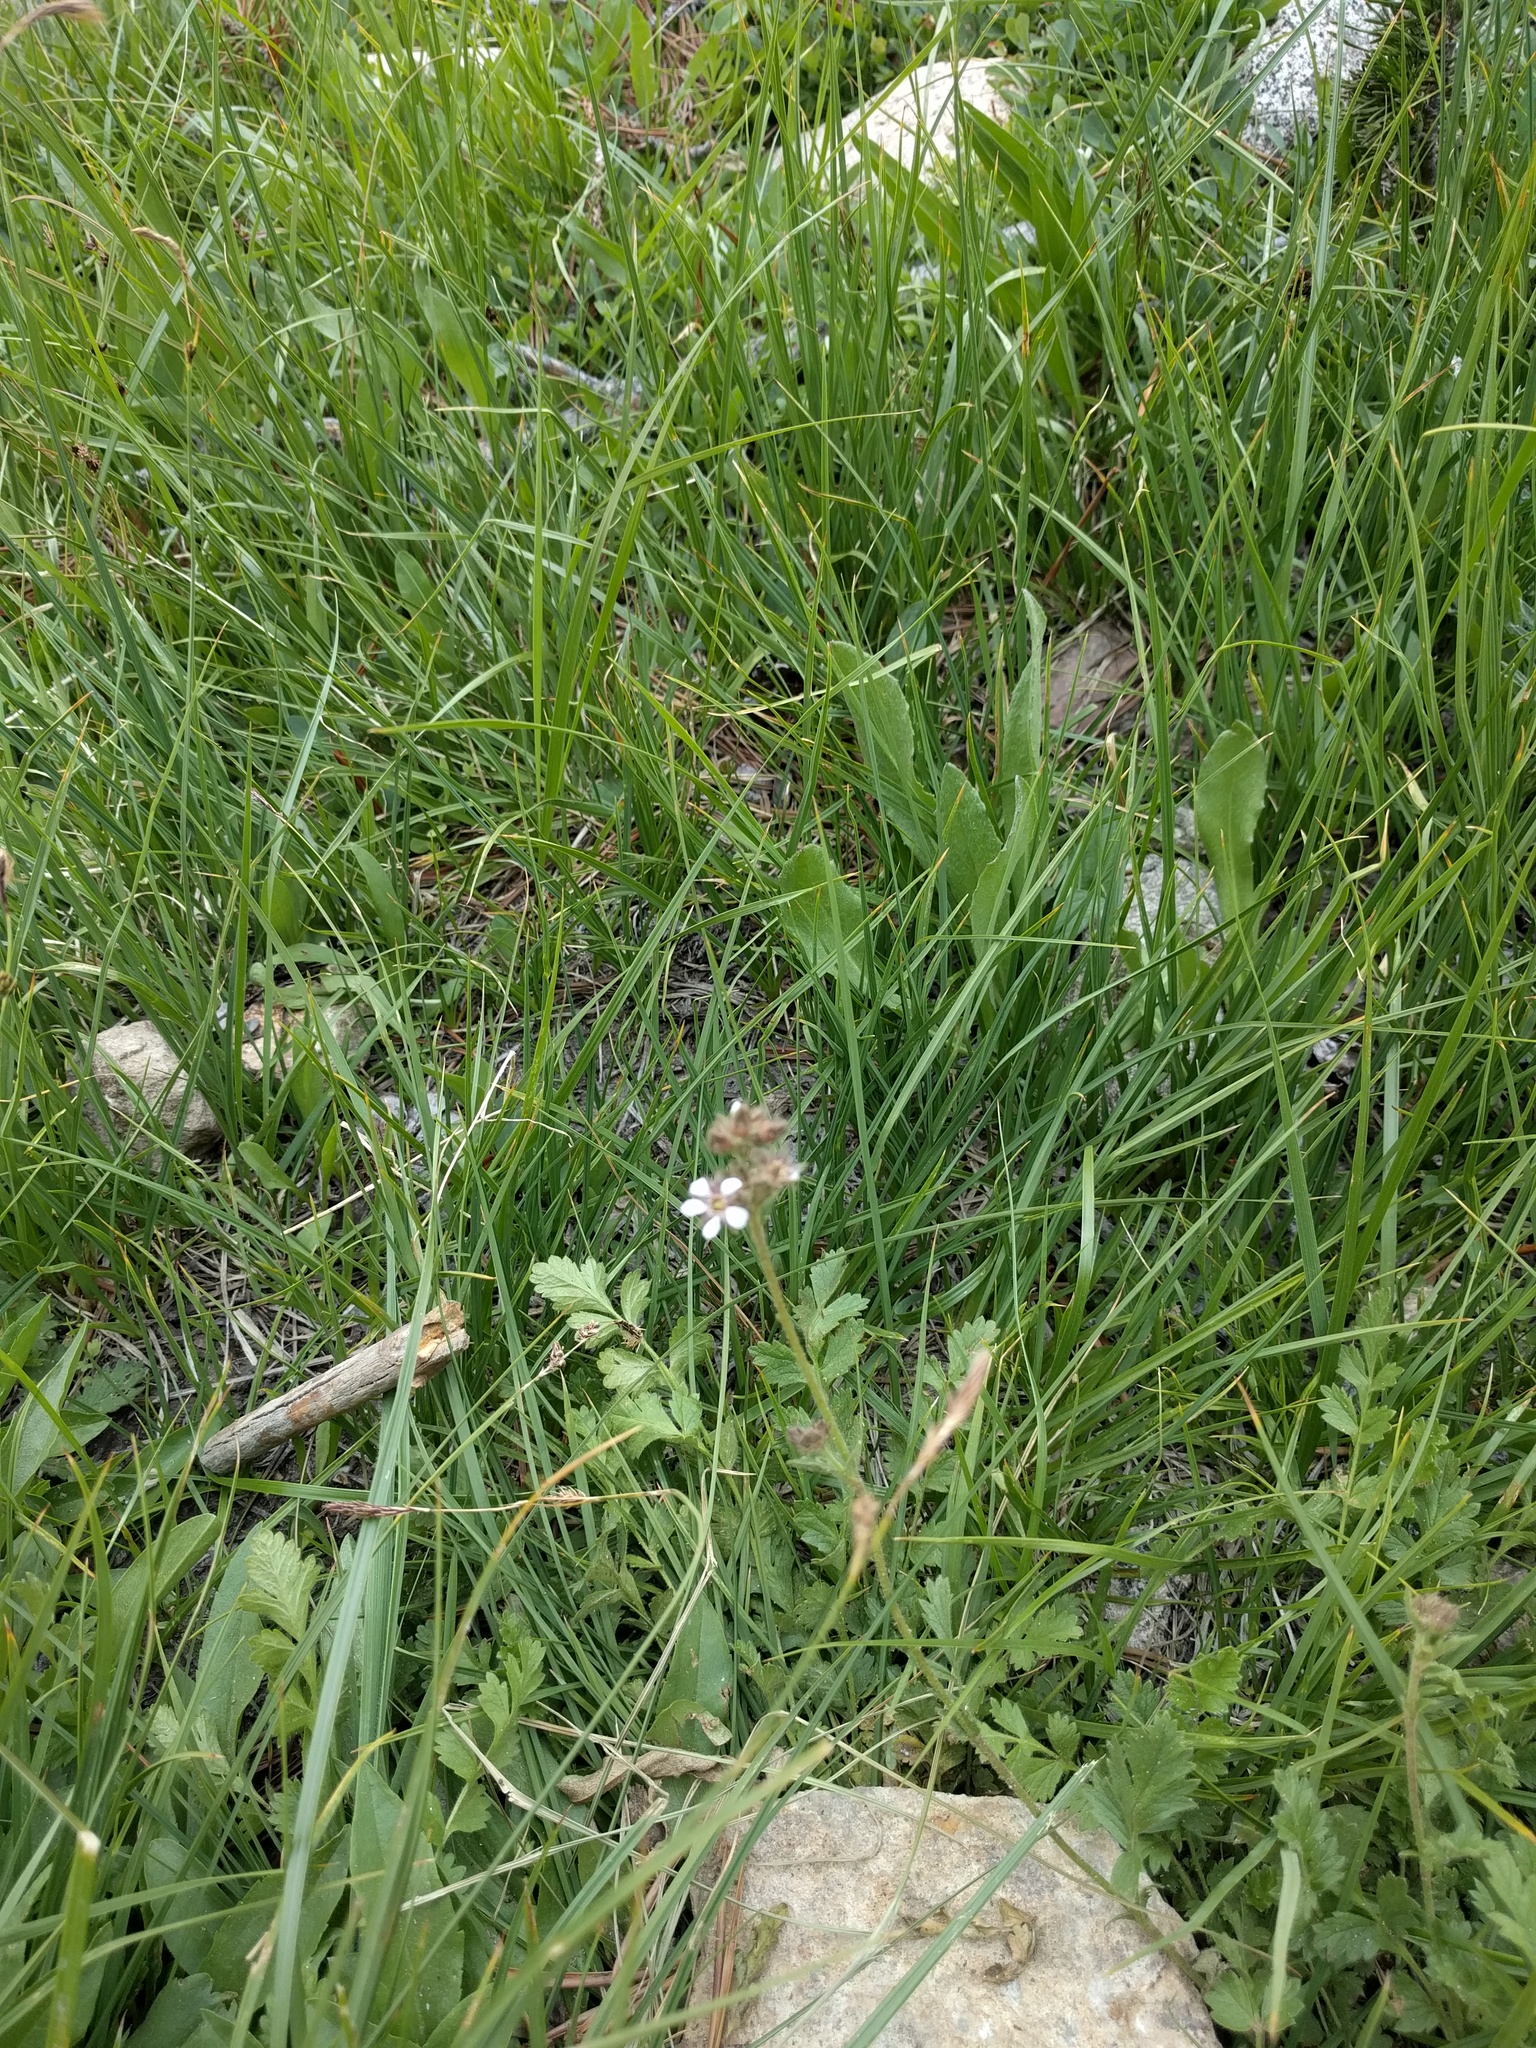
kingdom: Plantae
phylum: Tracheophyta
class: Magnoliopsida
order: Rosales
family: Rosaceae
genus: Potentilla
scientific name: Potentilla douglasii
